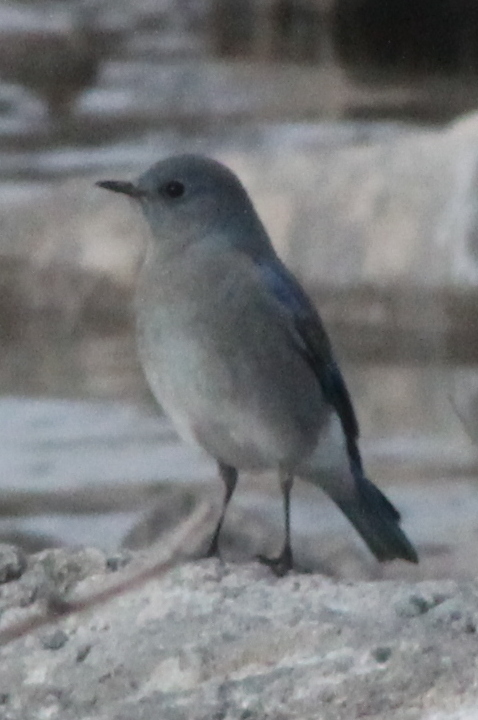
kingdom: Animalia
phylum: Chordata
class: Aves
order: Passeriformes
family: Turdidae
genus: Sialia
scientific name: Sialia currucoides
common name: Mountain bluebird
